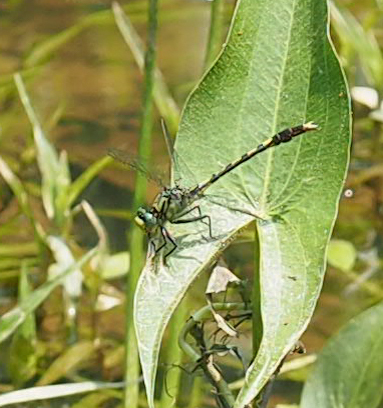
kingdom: Animalia
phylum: Arthropoda
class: Insecta
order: Odonata
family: Gomphidae
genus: Arigomphus
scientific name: Arigomphus villosipes
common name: Unicorn clubtail
